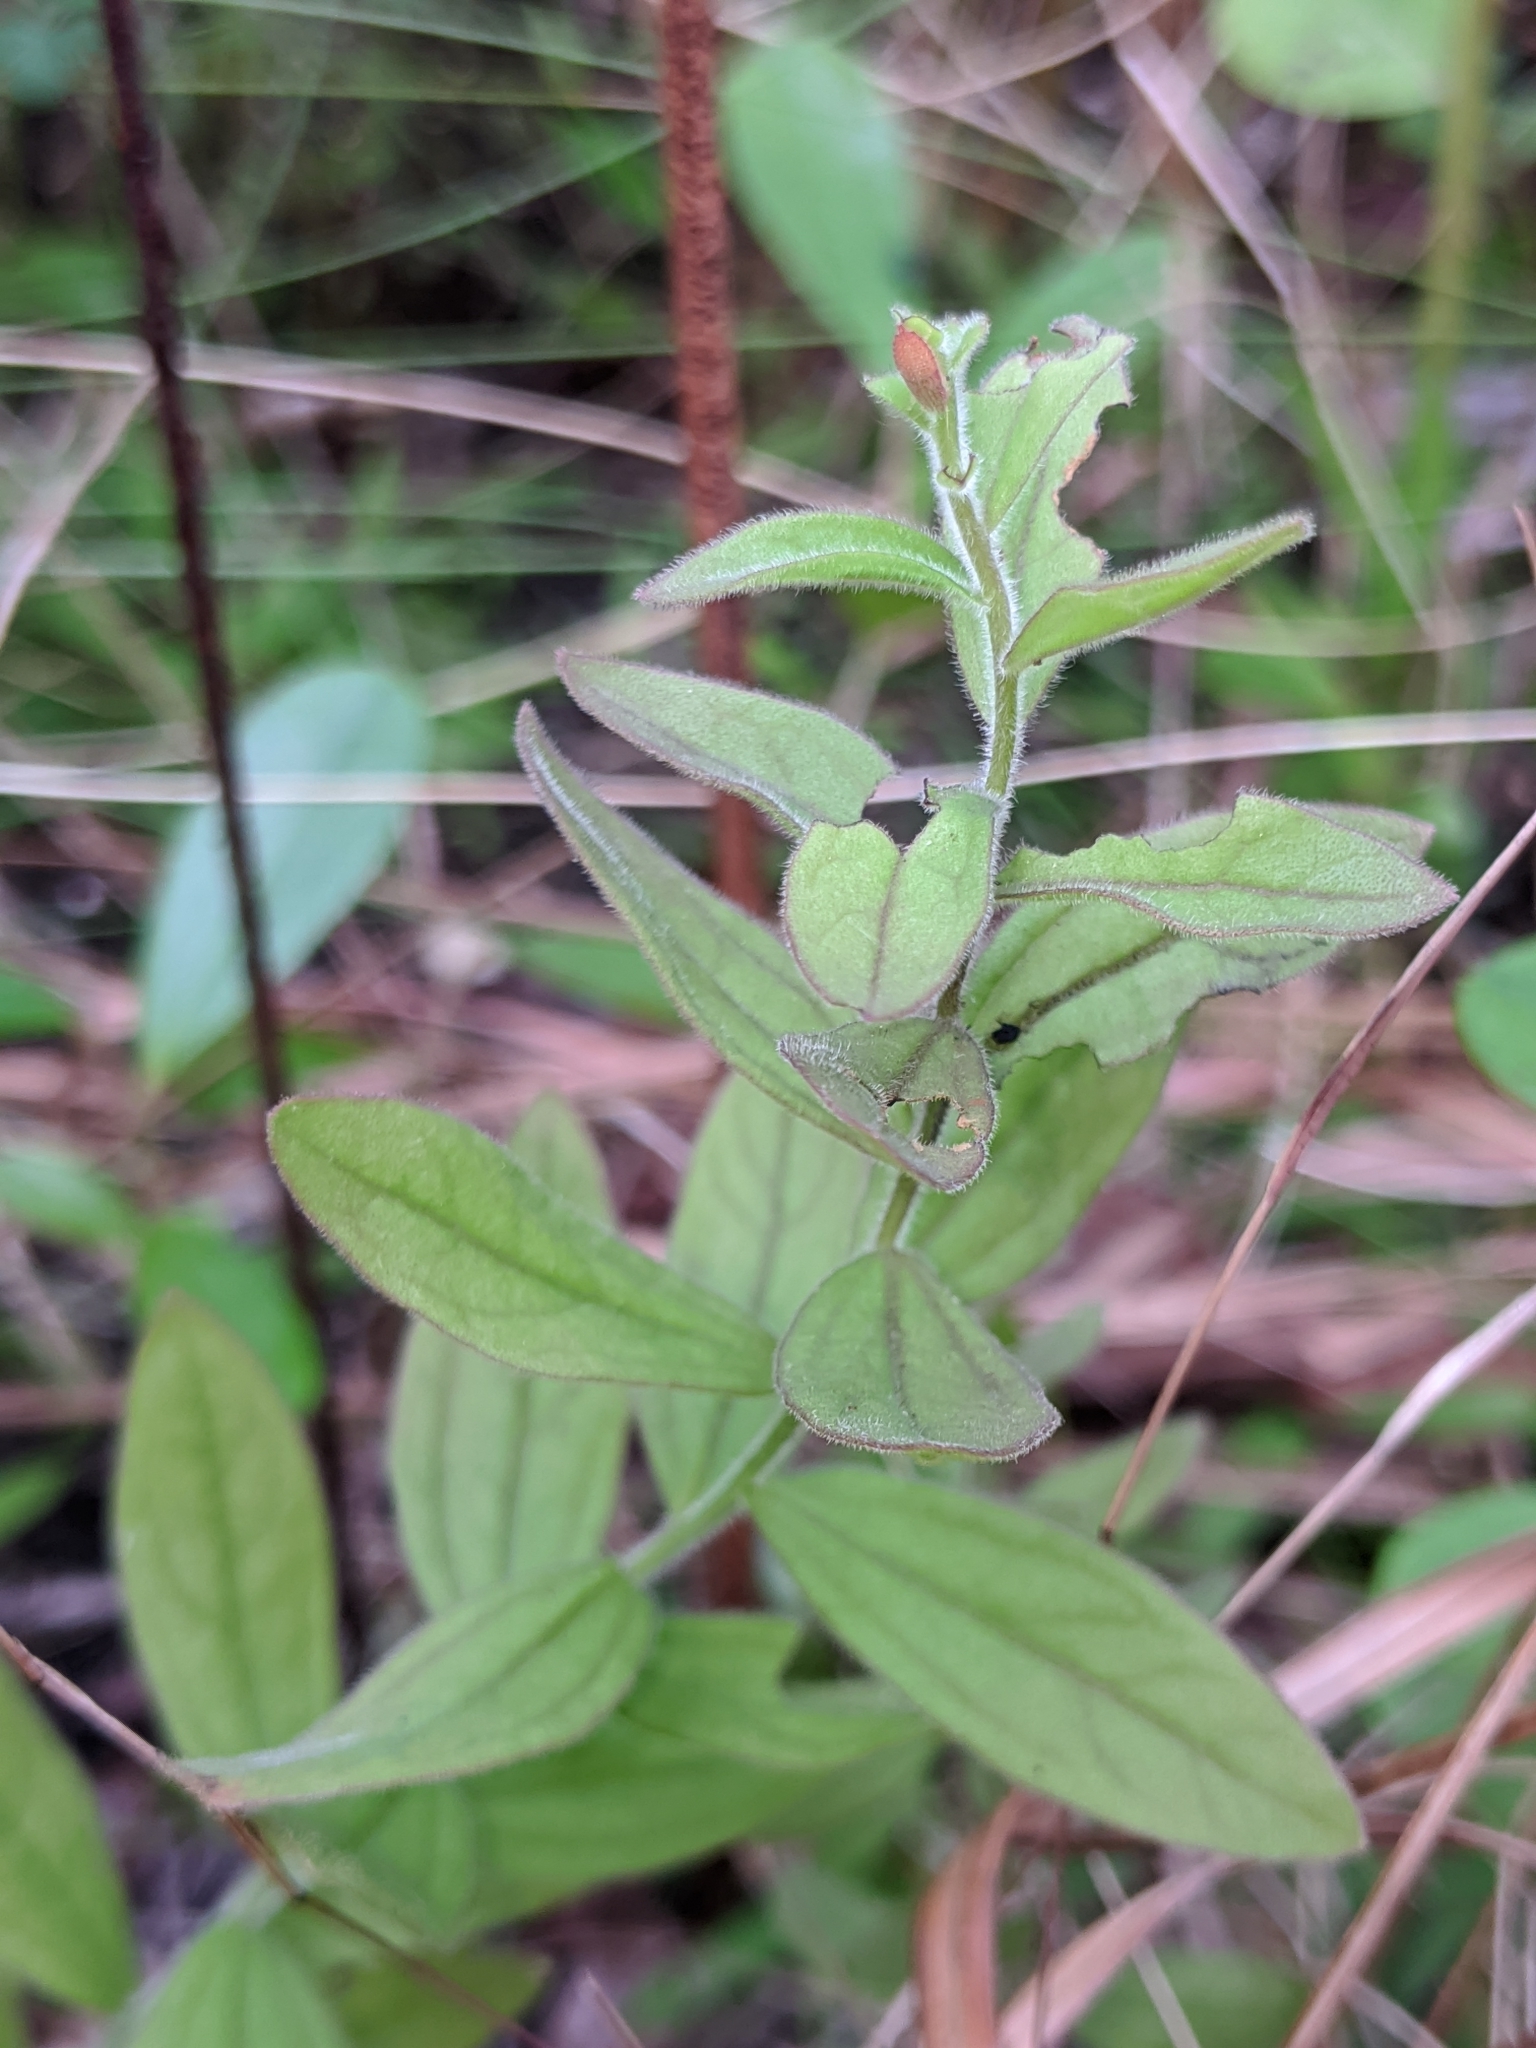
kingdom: Plantae
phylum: Tracheophyta
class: Magnoliopsida
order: Lamiales
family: Orobanchaceae
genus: Schwalbea
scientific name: Schwalbea americana
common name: American chaffseed
